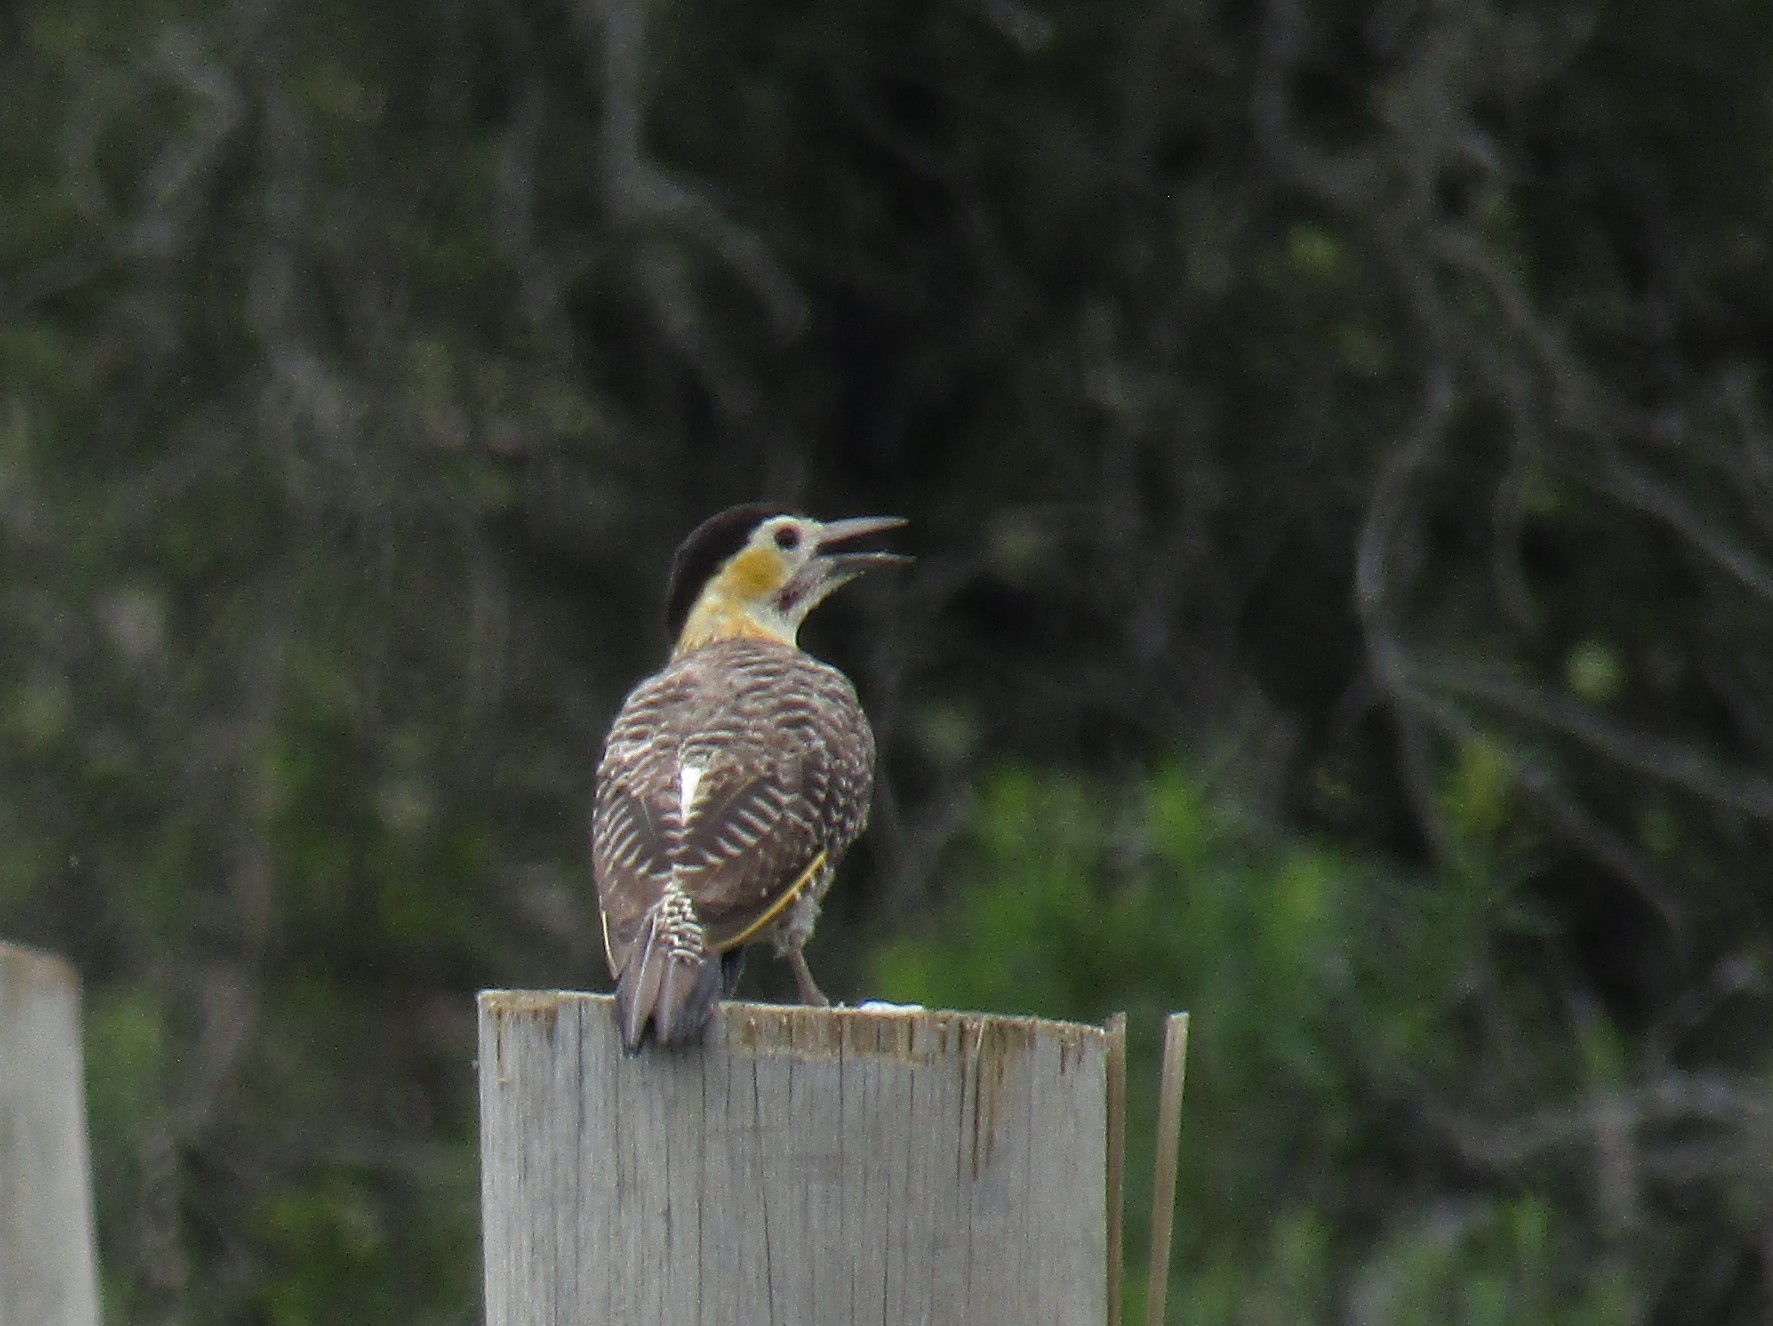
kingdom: Animalia
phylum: Chordata
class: Aves
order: Piciformes
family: Picidae
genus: Colaptes
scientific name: Colaptes campestris
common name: Campo flicker
